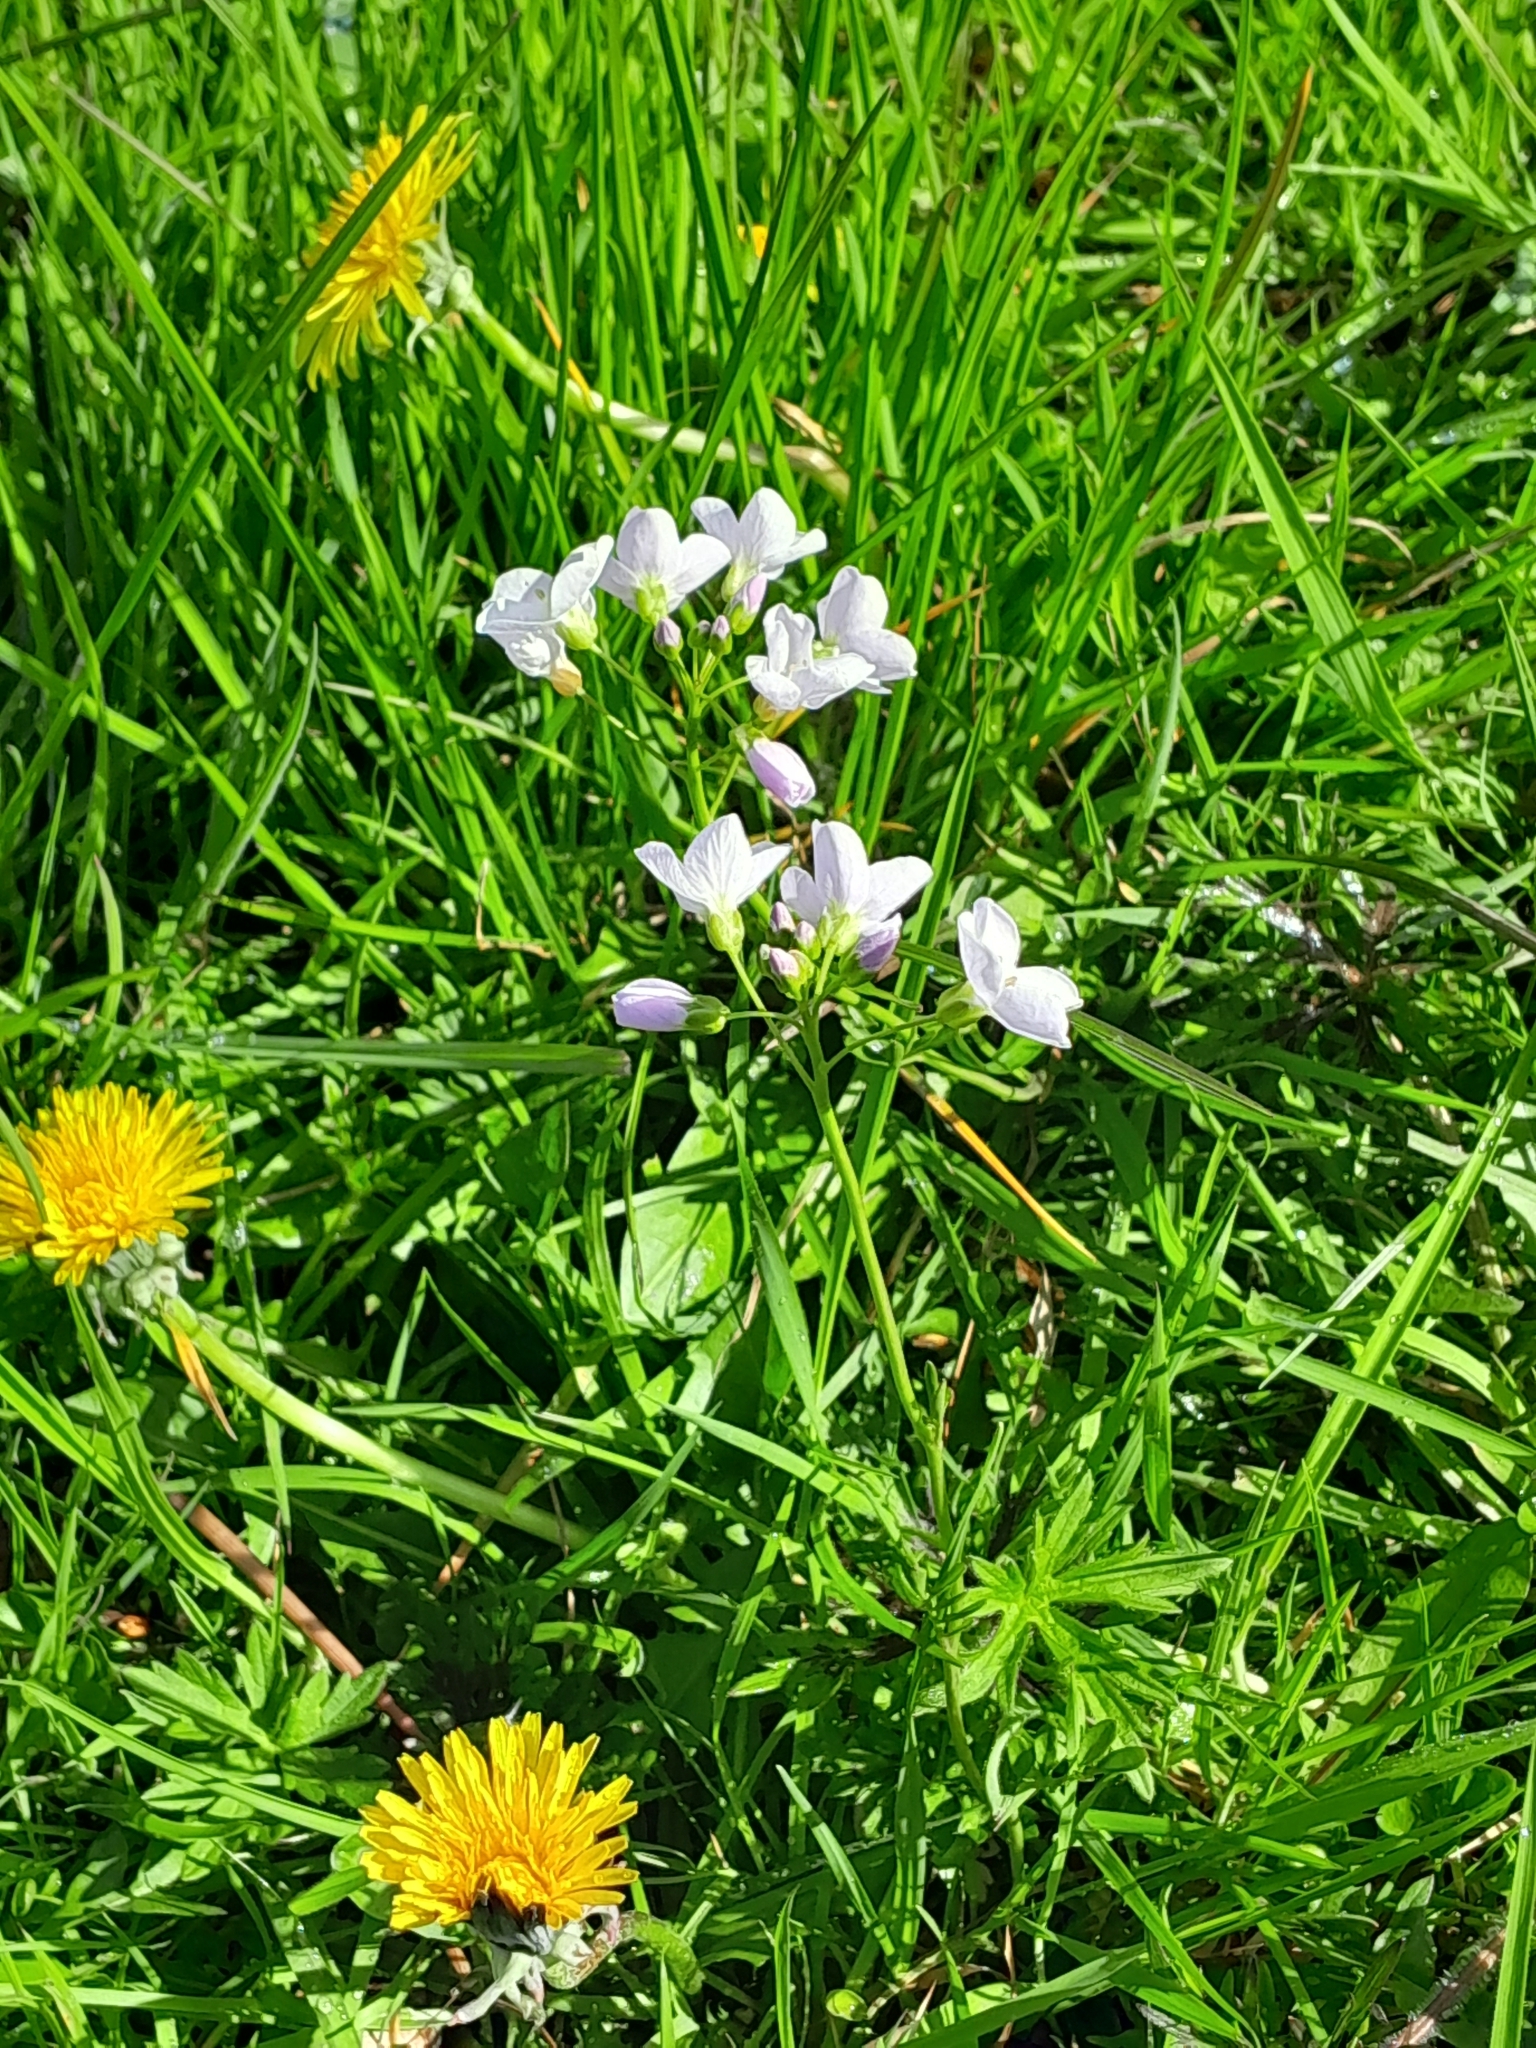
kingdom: Plantae
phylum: Tracheophyta
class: Magnoliopsida
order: Brassicales
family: Brassicaceae
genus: Cardamine
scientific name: Cardamine pratensis
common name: Cuckoo flower
